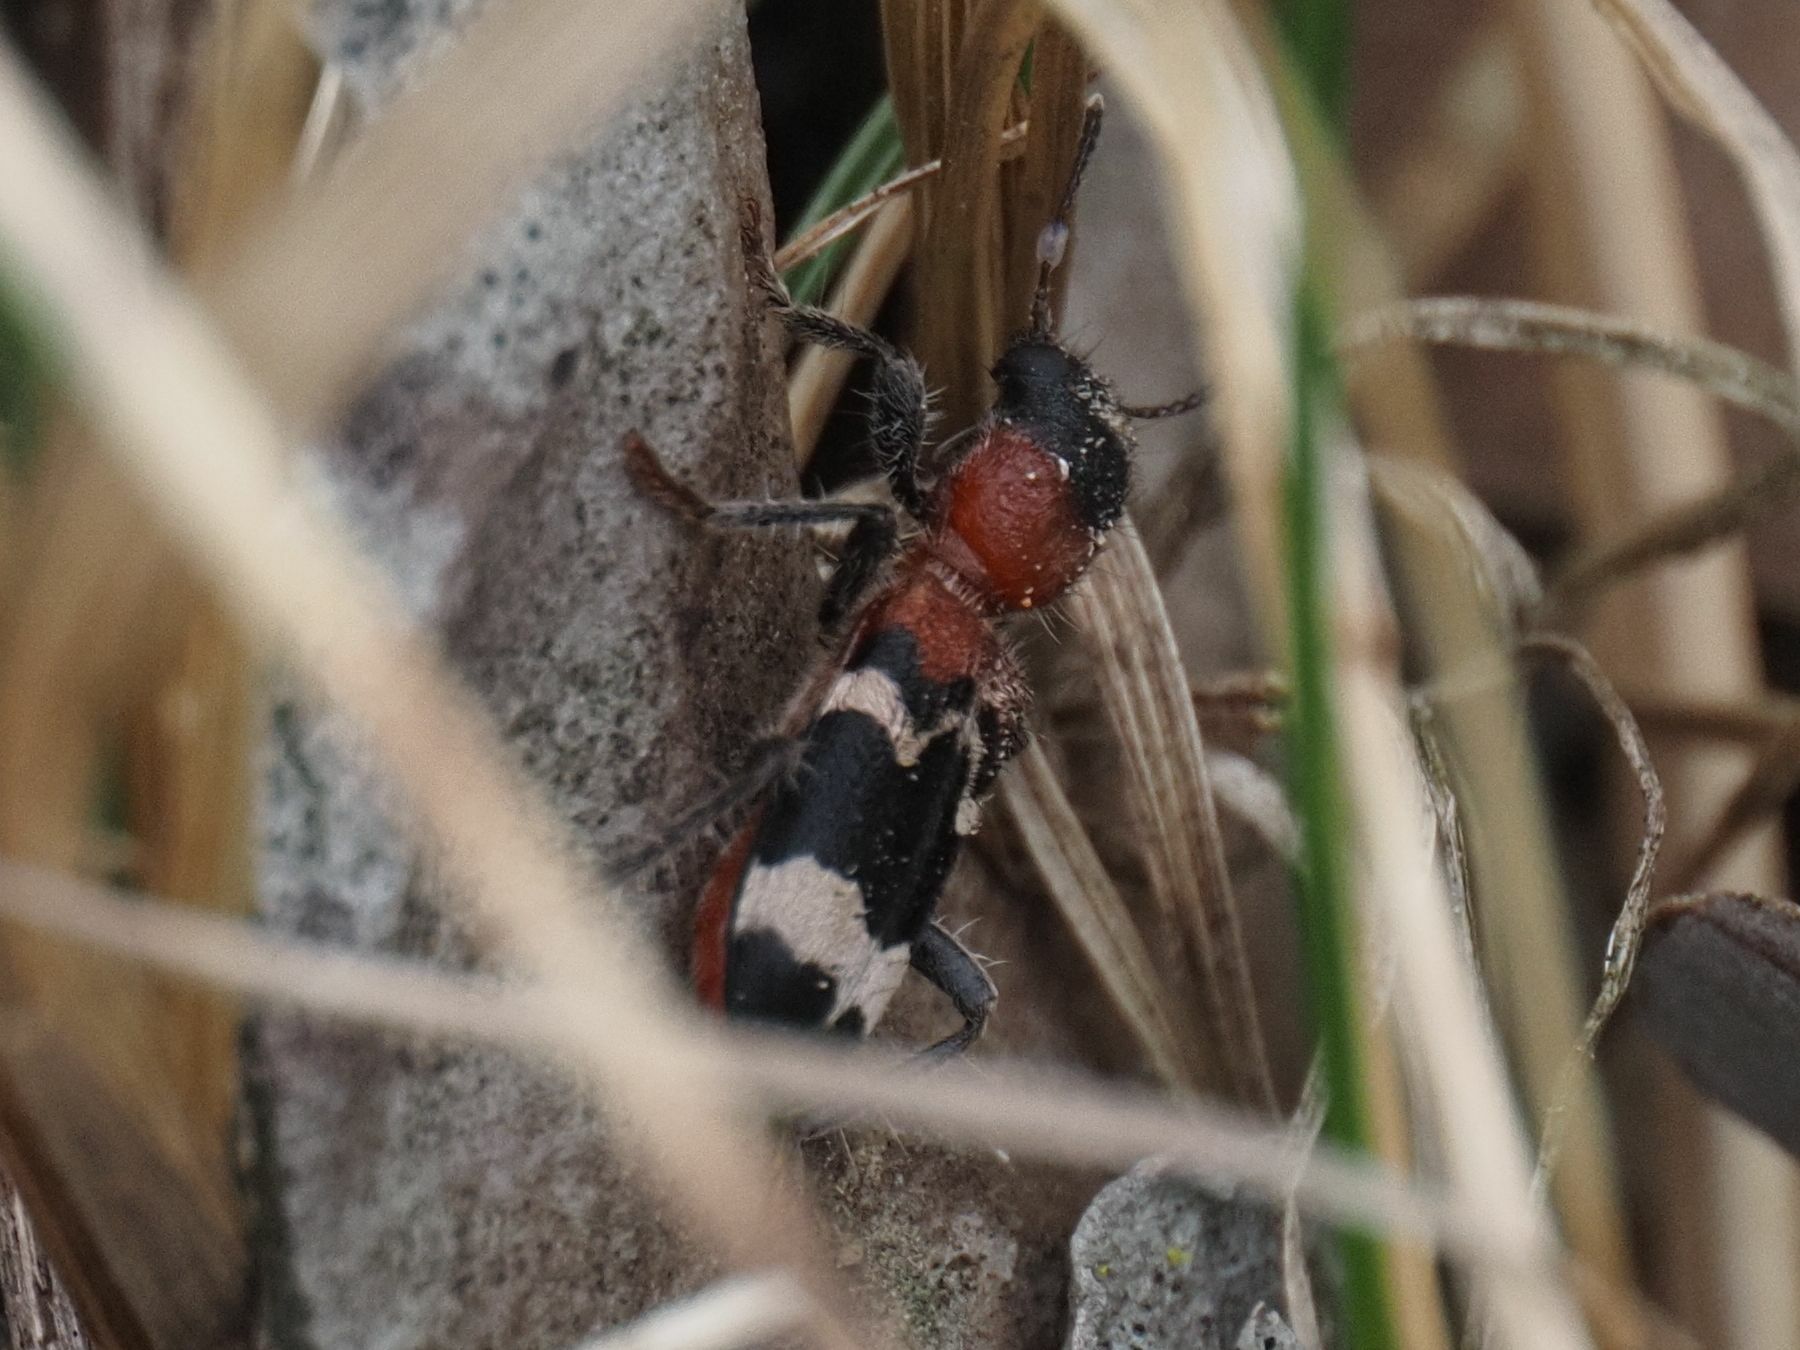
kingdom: Animalia
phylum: Arthropoda
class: Insecta
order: Coleoptera
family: Cleridae
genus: Thanasimus
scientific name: Thanasimus formicarius
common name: Ant beetle
